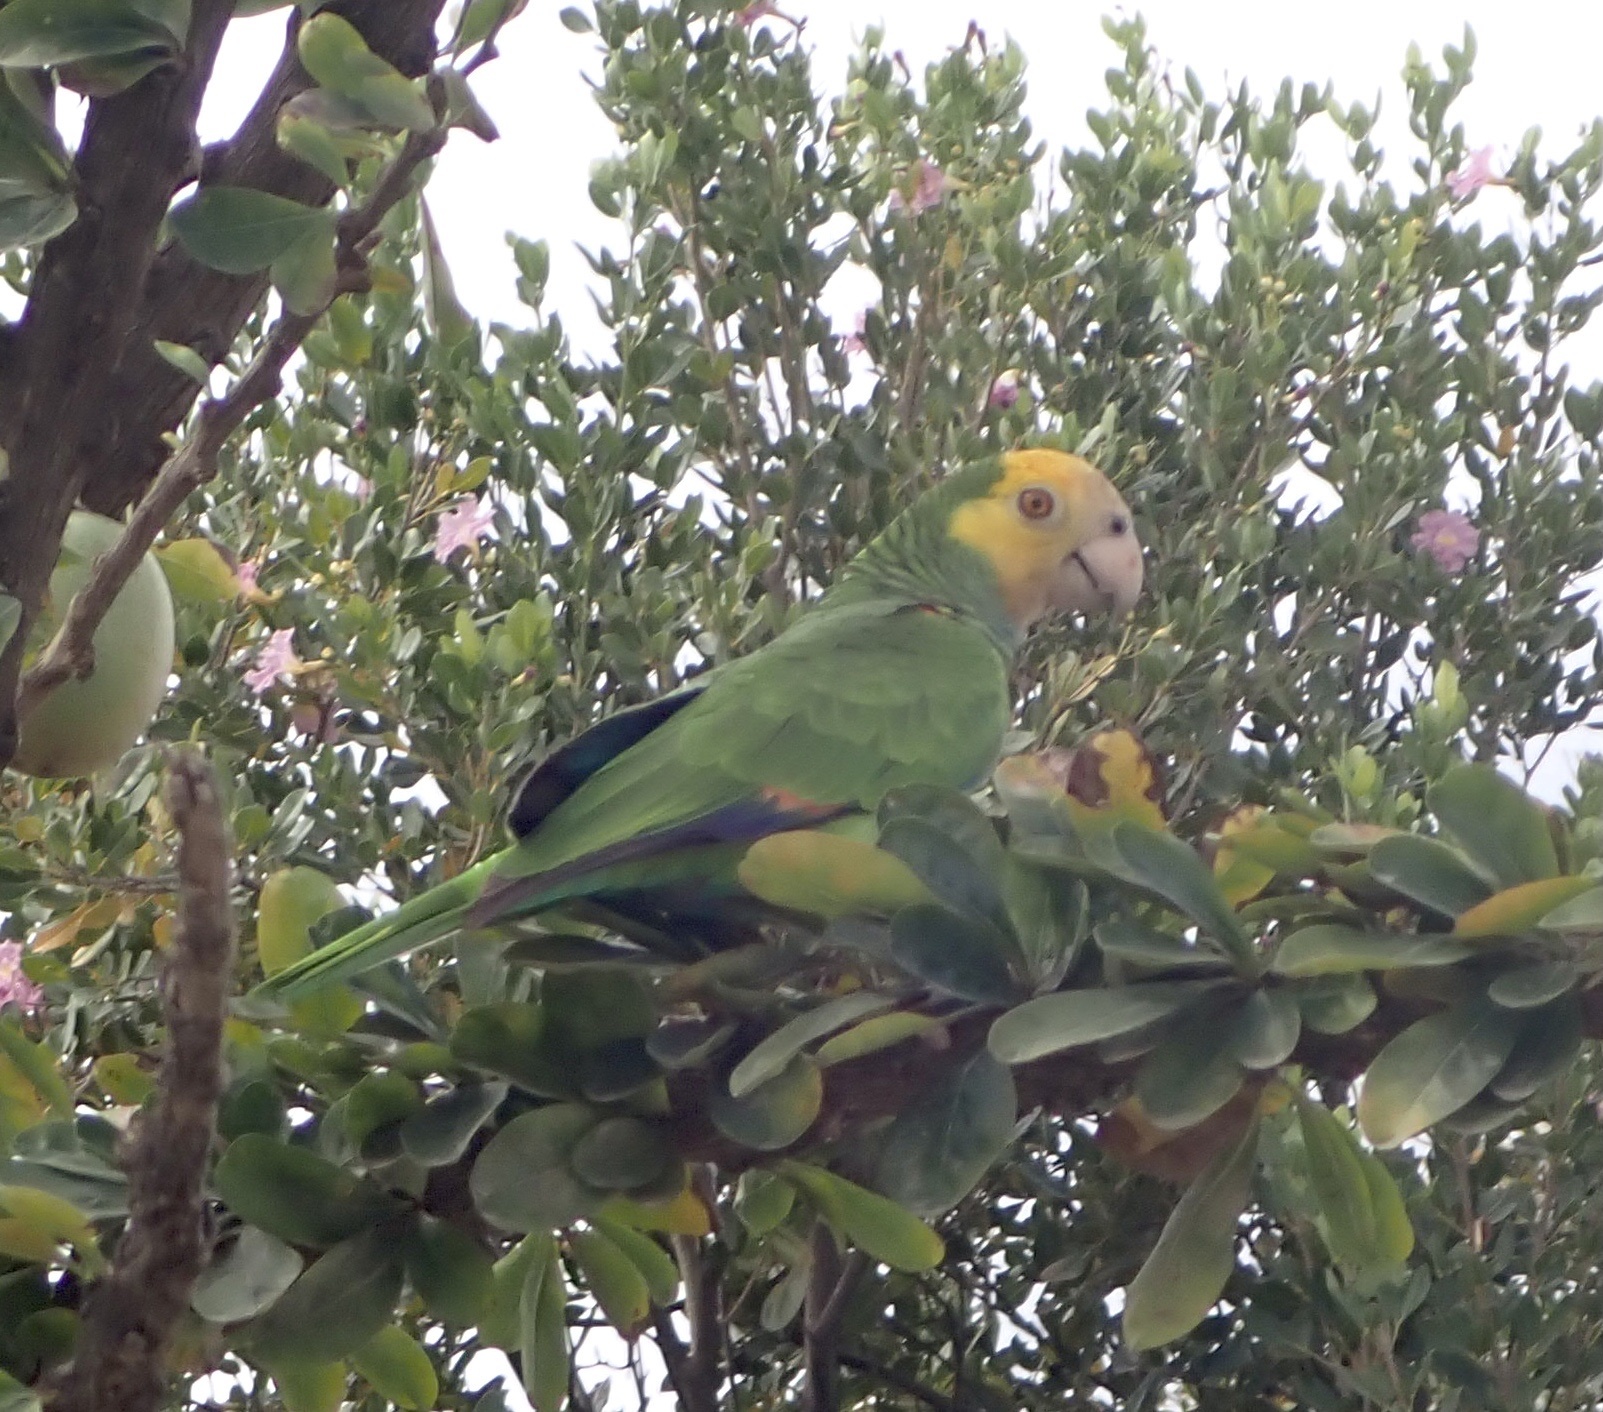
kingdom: Animalia
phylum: Chordata
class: Aves
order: Psittaciformes
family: Psittacidae
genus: Amazona
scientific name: Amazona barbadensis
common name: Yellow-shouldered amazon
